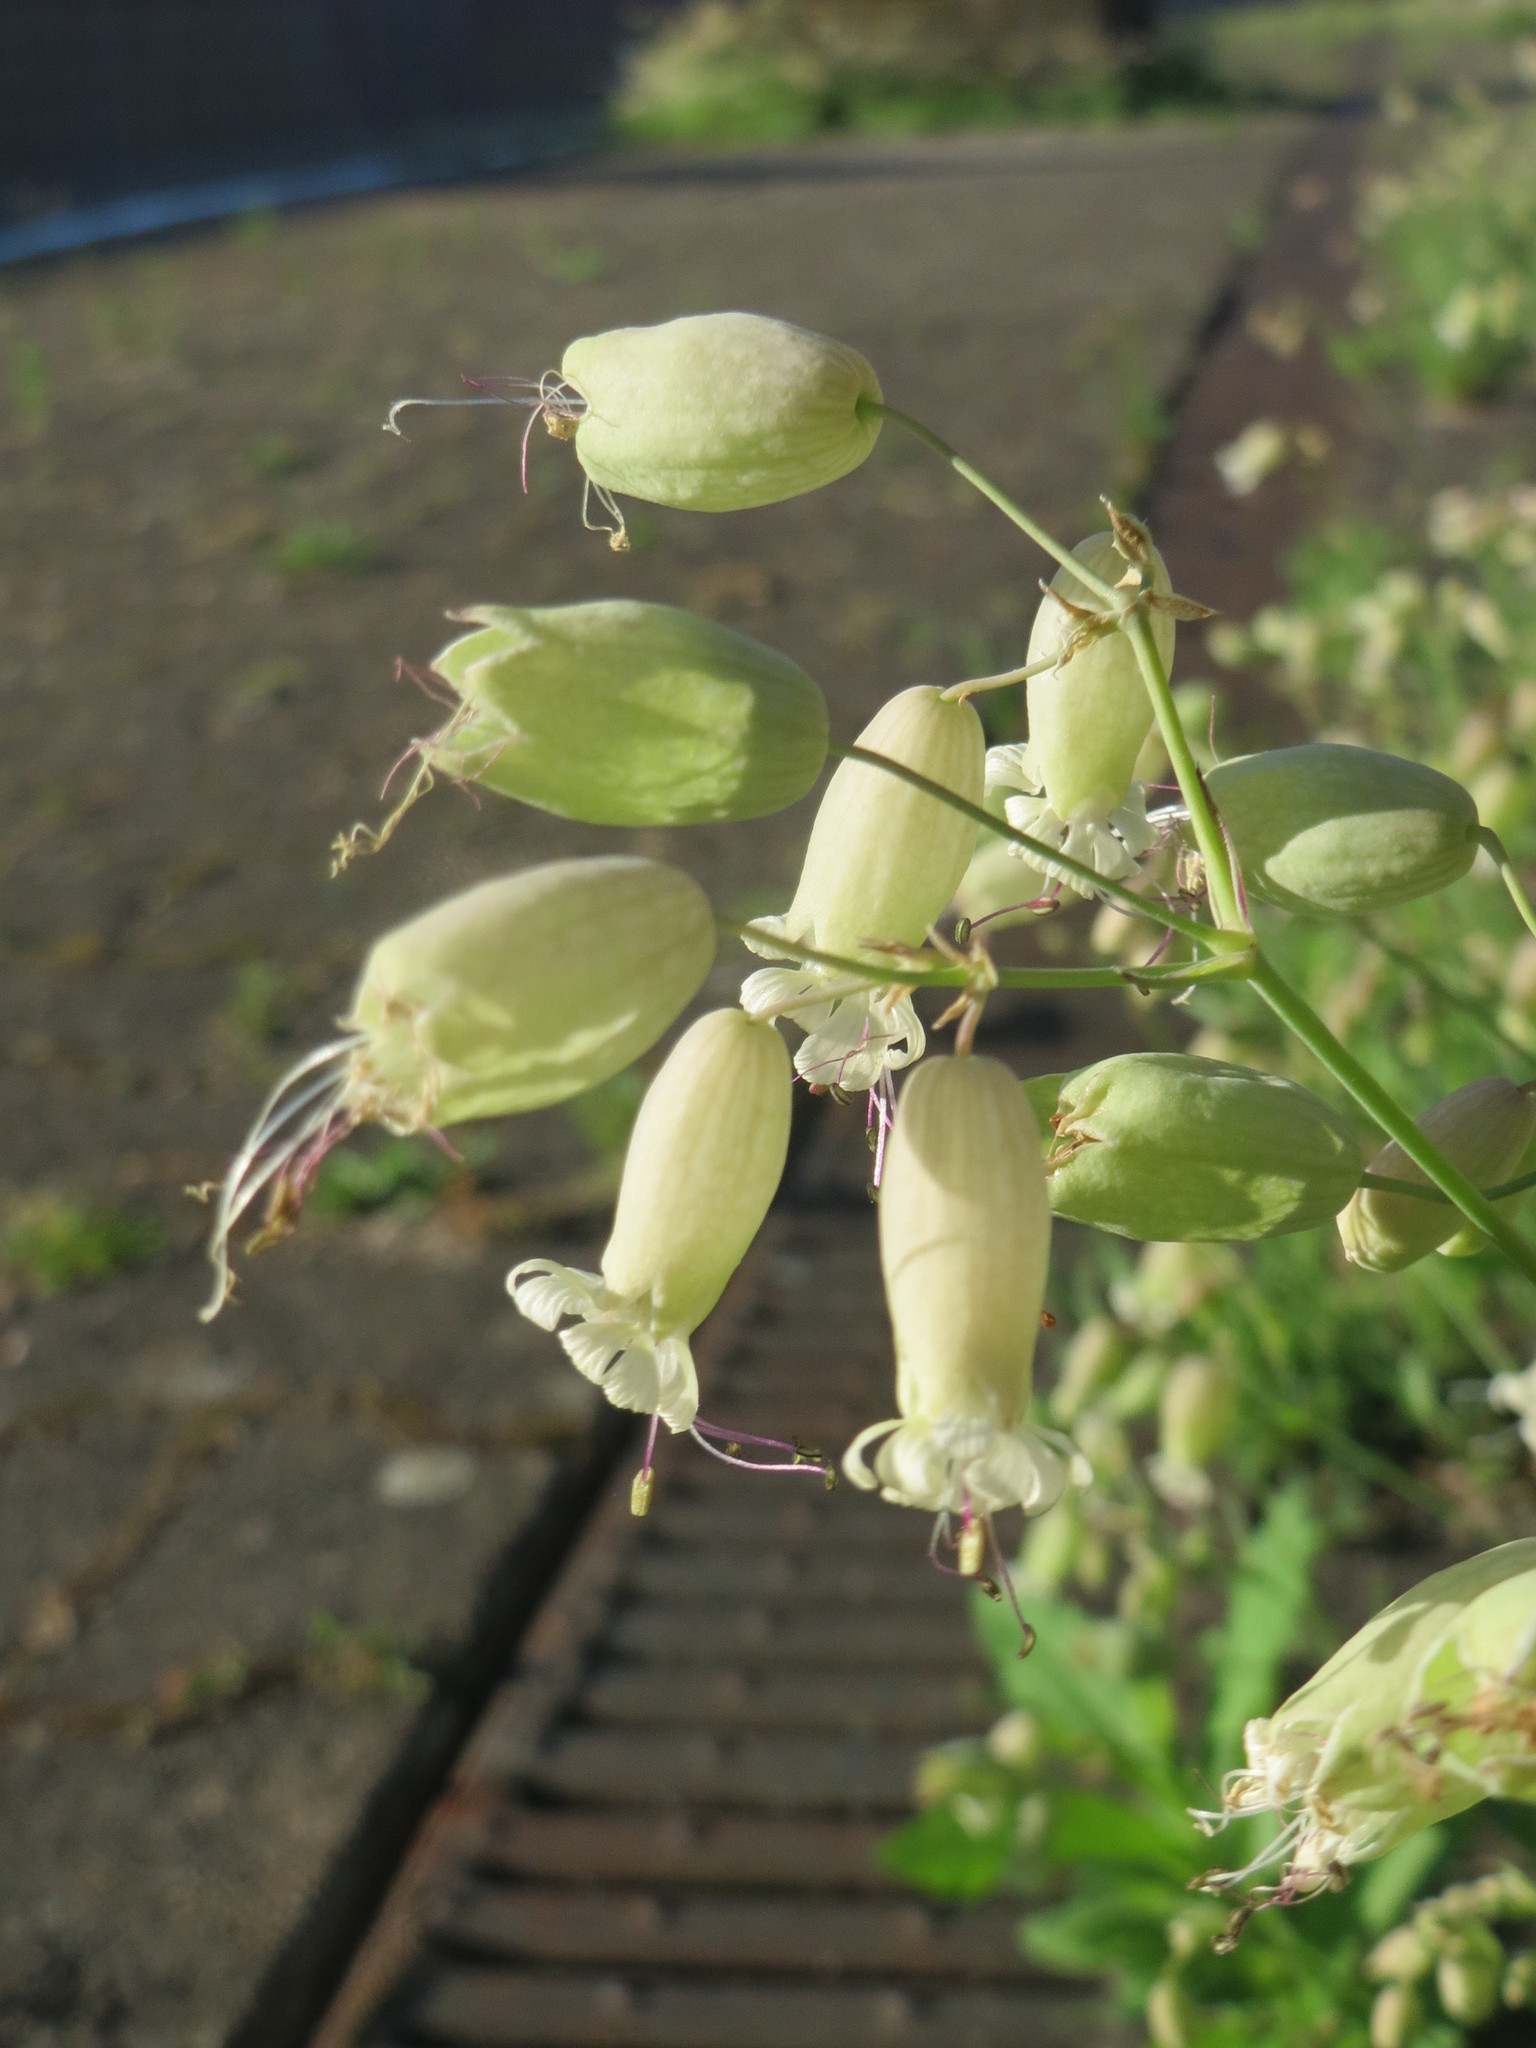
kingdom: Plantae
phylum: Tracheophyta
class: Magnoliopsida
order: Caryophyllales
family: Caryophyllaceae
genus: Silene
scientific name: Silene vulgaris
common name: Bladder campion
